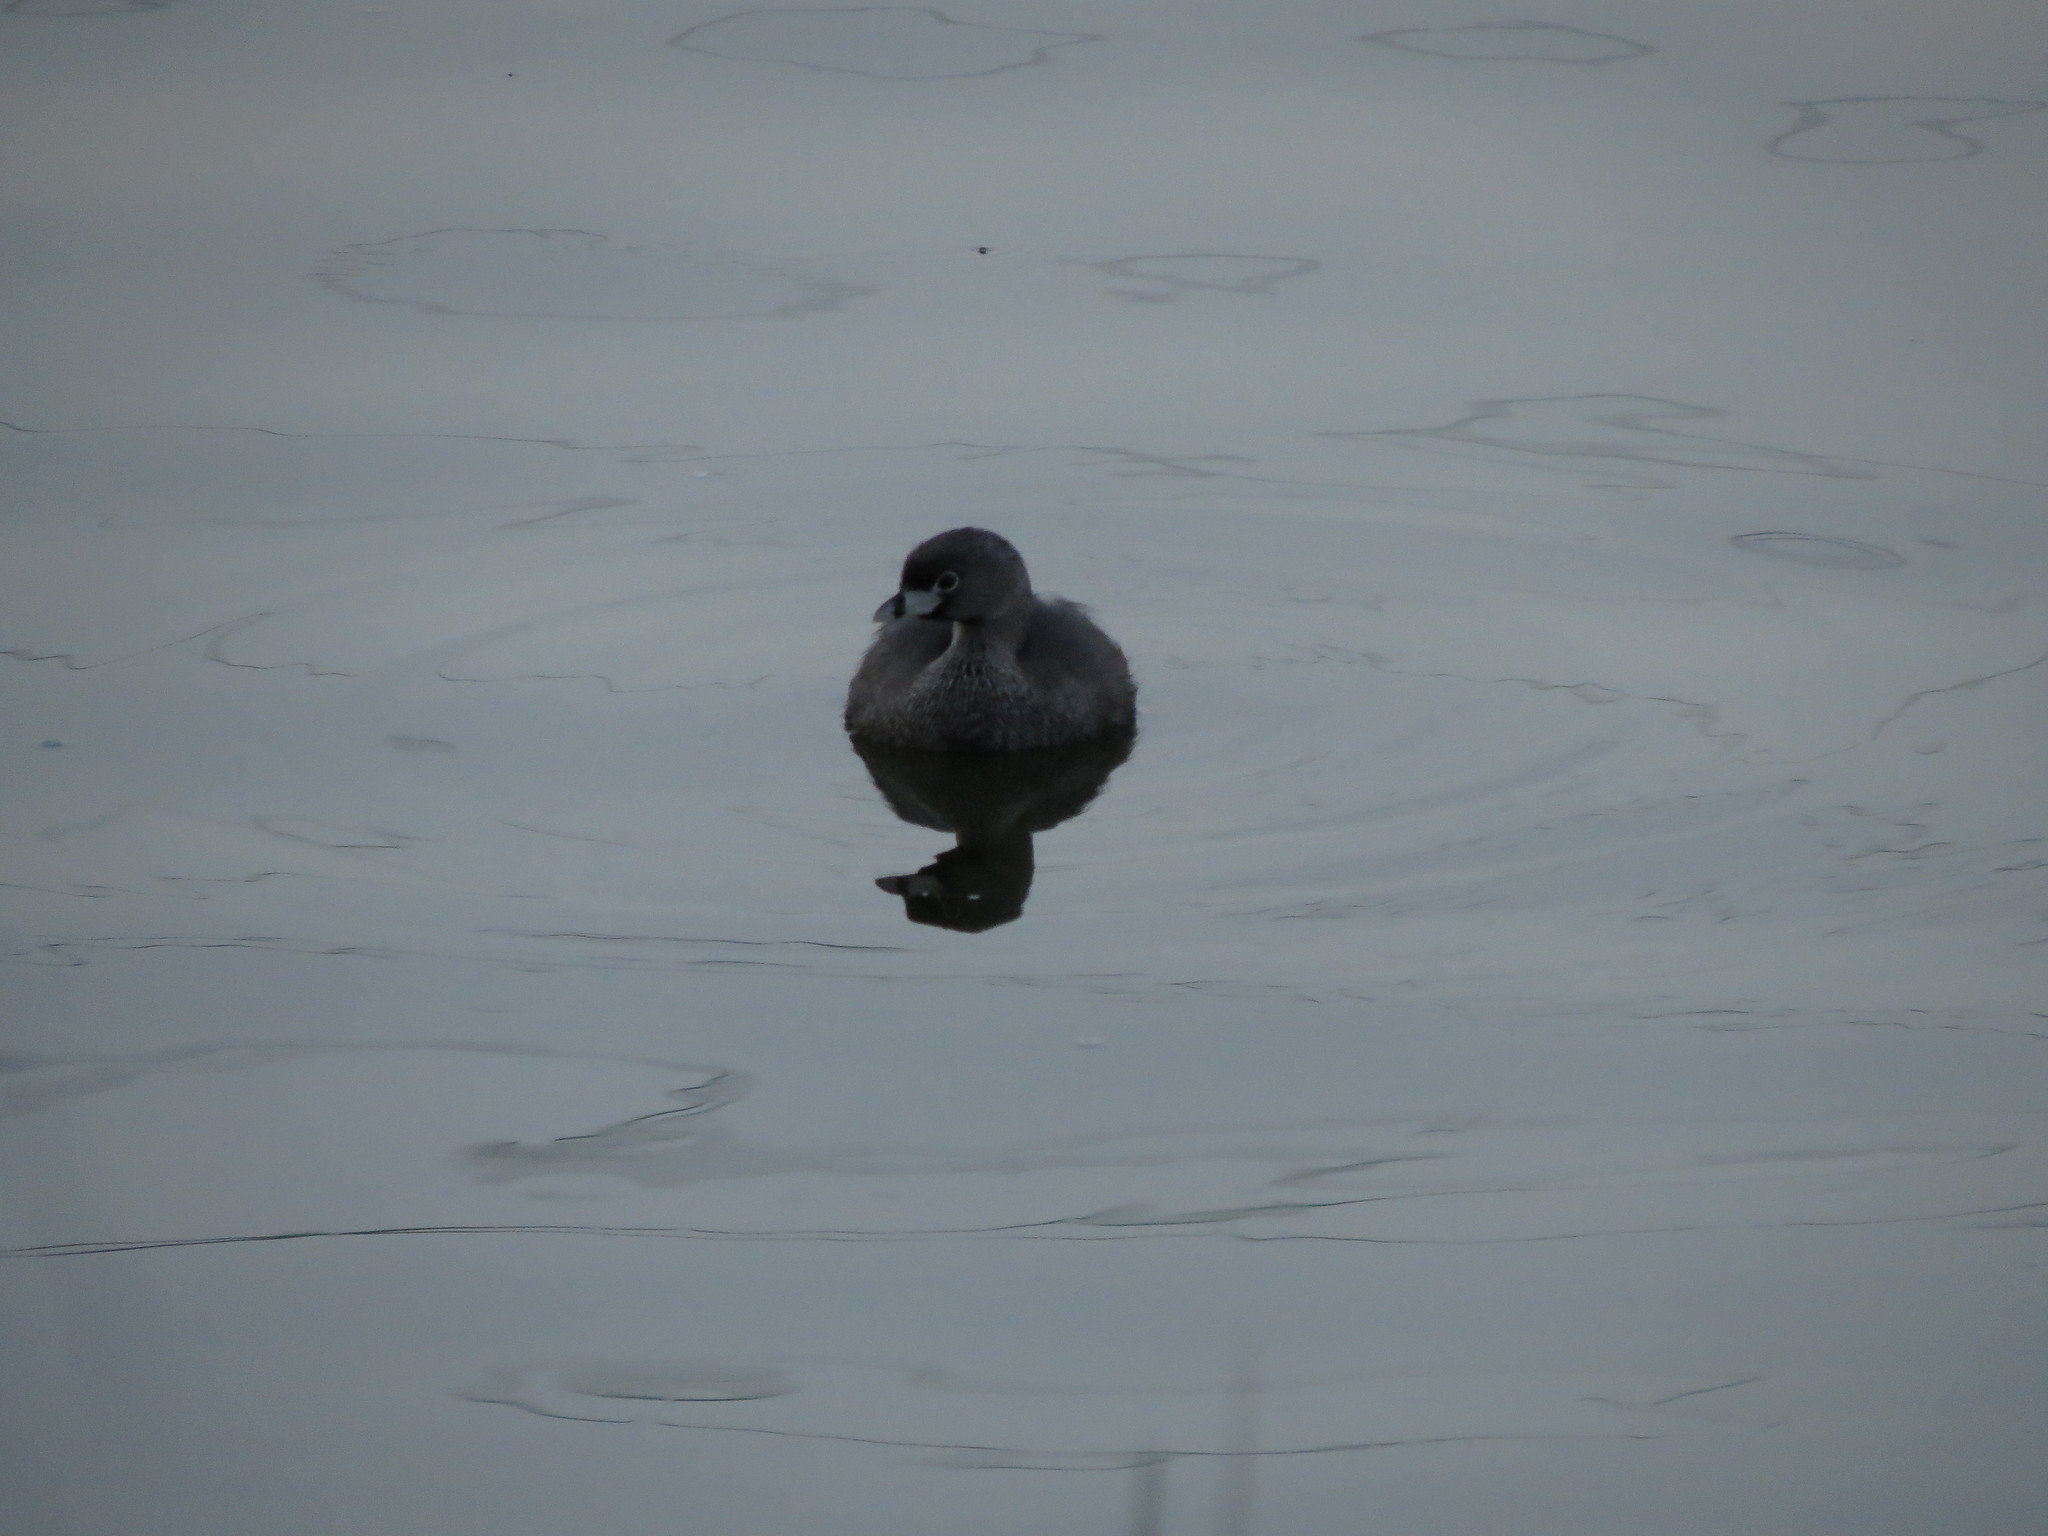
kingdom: Animalia
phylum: Chordata
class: Aves
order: Podicipediformes
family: Podicipedidae
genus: Podilymbus
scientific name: Podilymbus podiceps
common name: Pied-billed grebe
